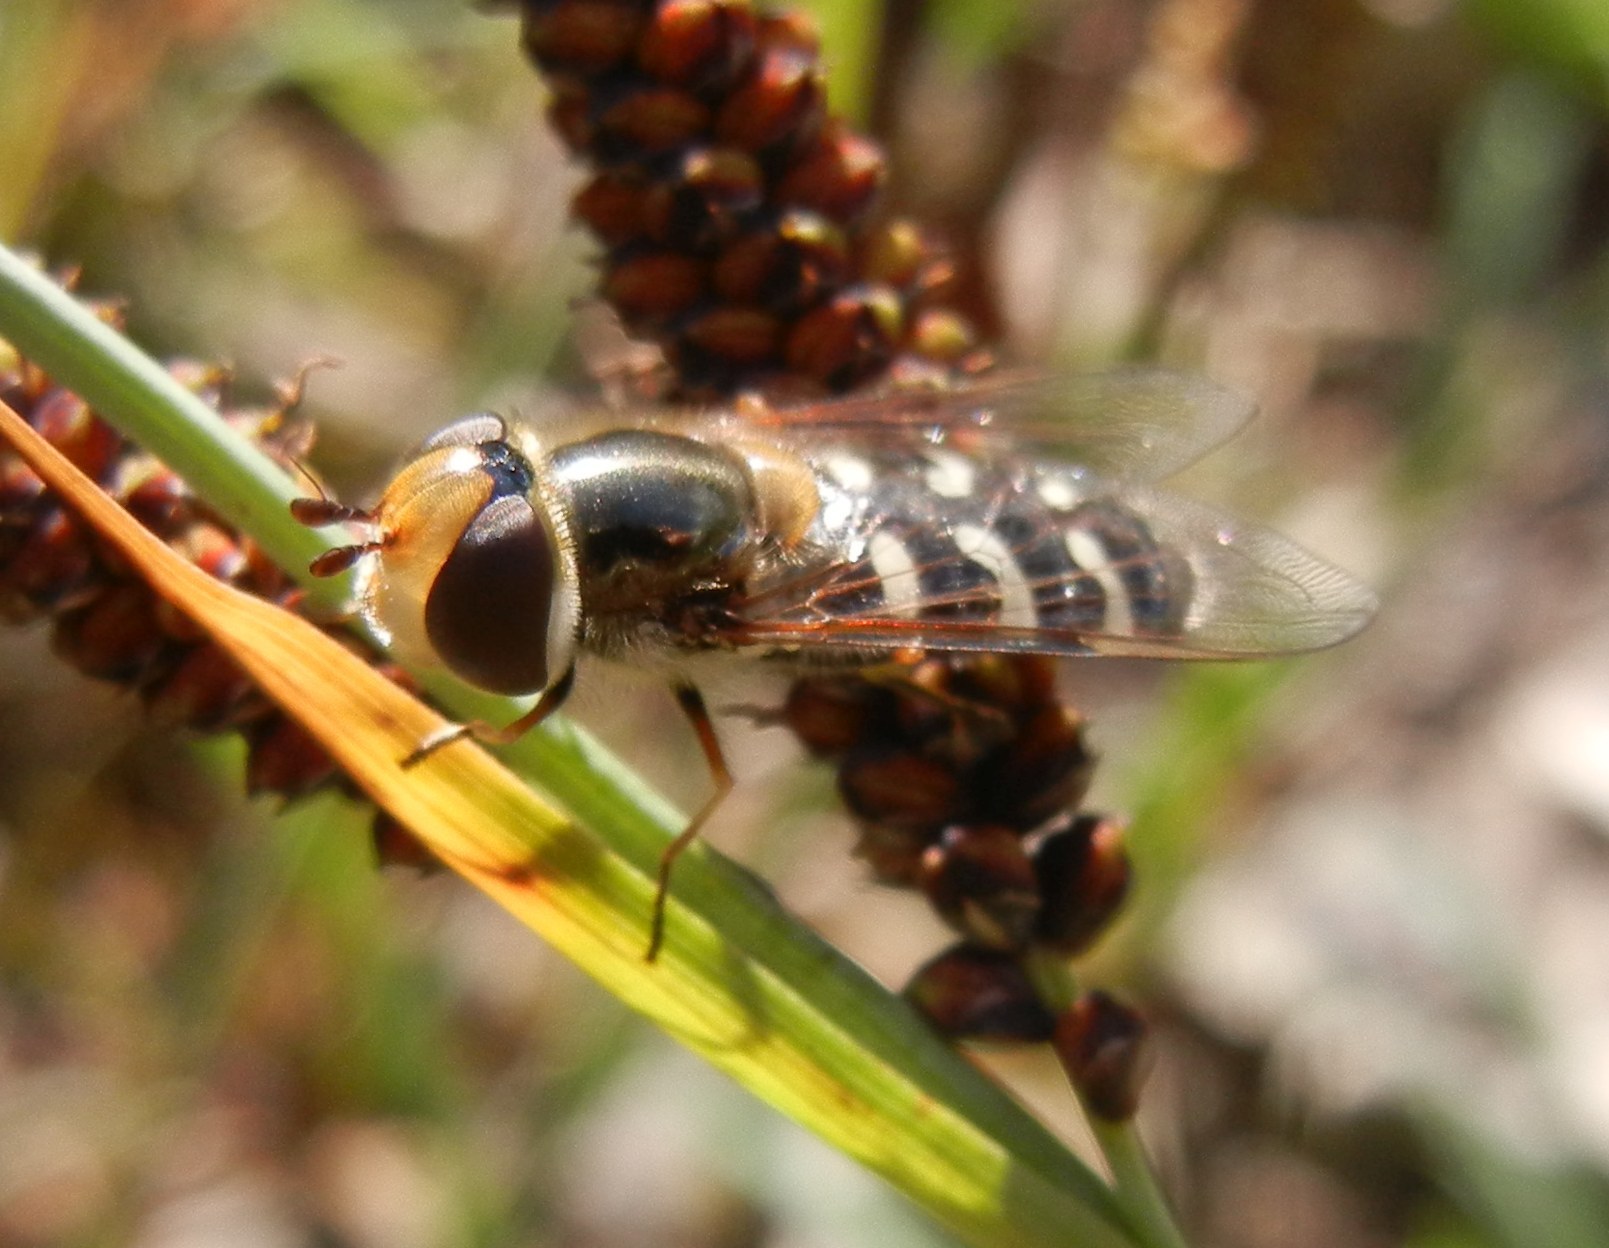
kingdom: Animalia
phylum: Arthropoda
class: Insecta
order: Diptera
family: Syrphidae
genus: Scaeva
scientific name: Scaeva pyrastri
